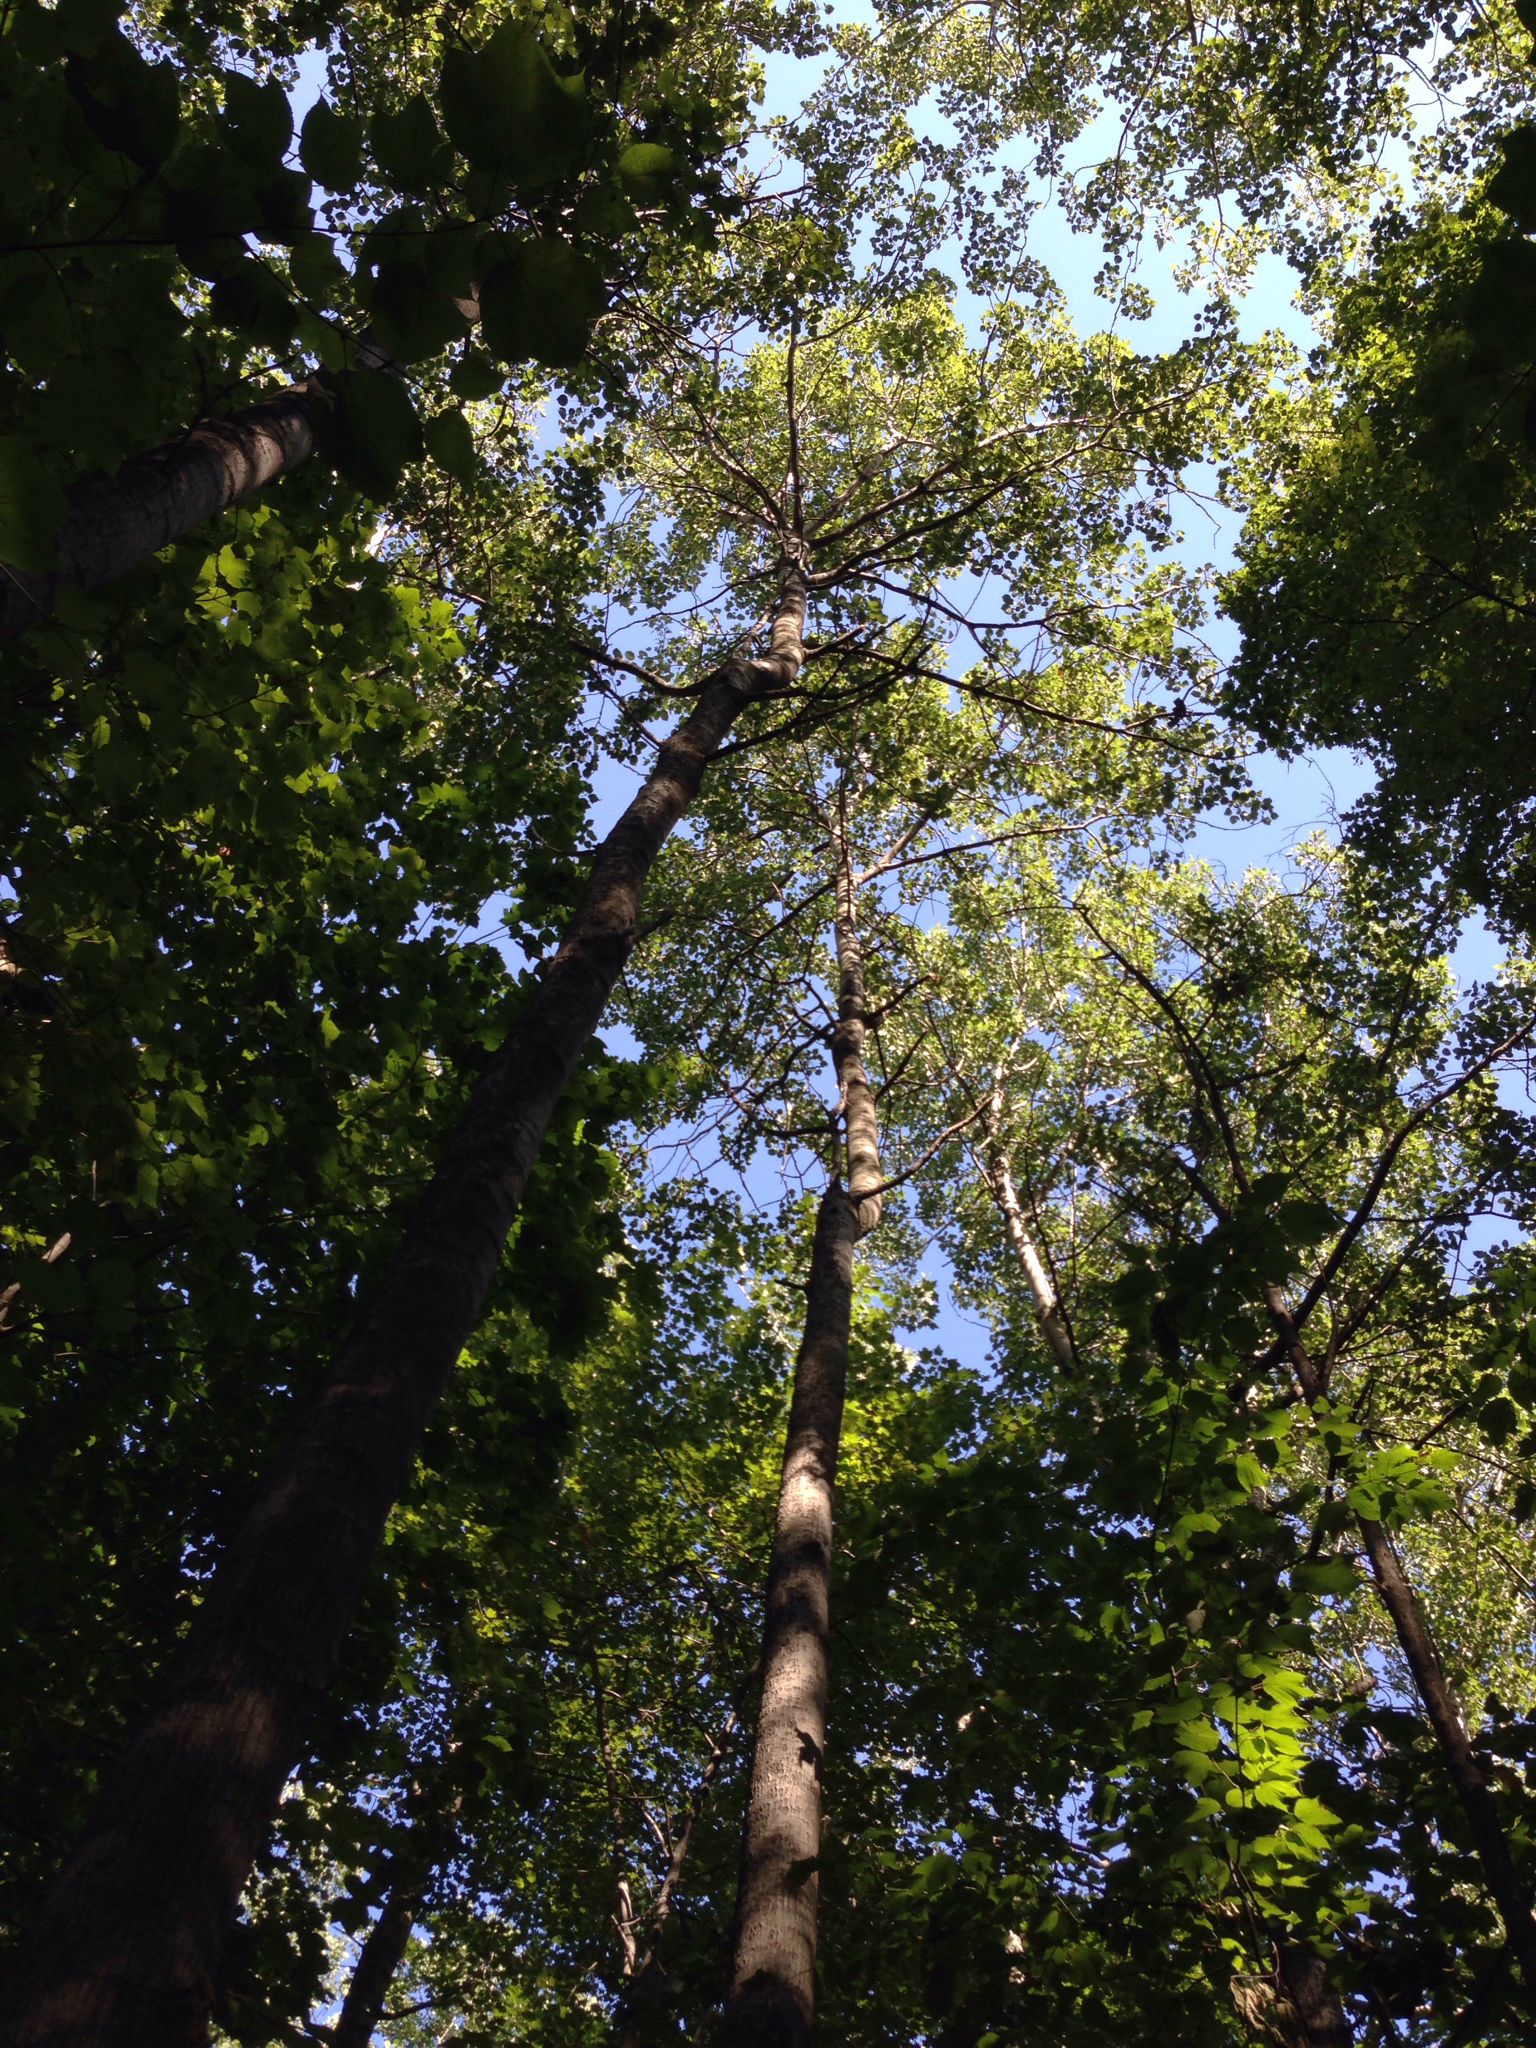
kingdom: Plantae
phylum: Tracheophyta
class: Magnoliopsida
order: Malpighiales
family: Salicaceae
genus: Populus
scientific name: Populus grandidentata
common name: Bigtooth aspen
